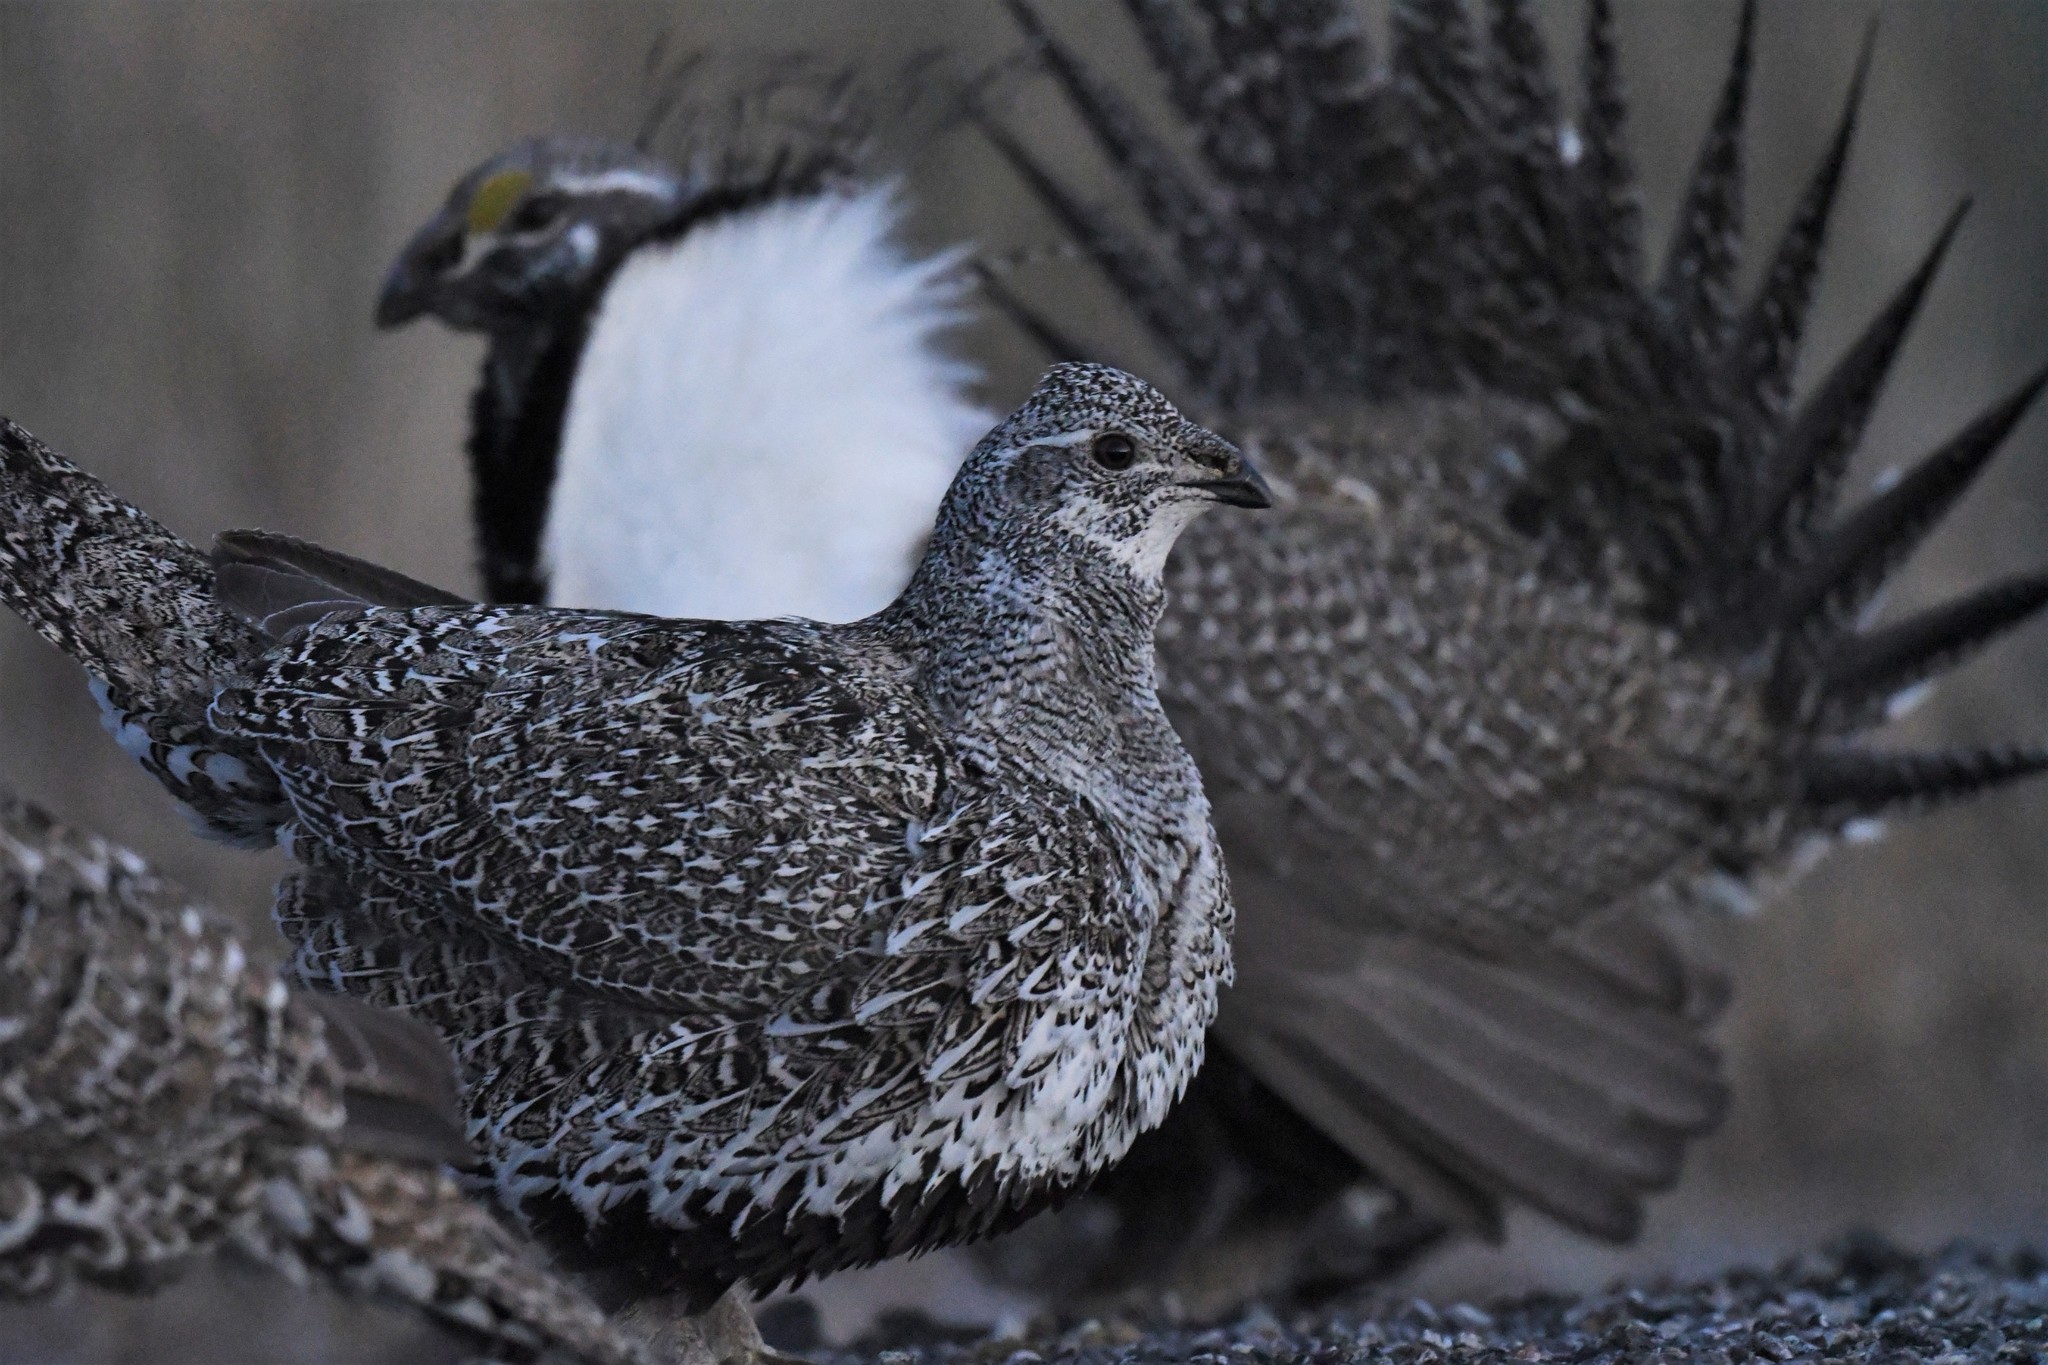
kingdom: Animalia
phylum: Chordata
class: Aves
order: Galliformes
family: Phasianidae
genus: Centrocercus
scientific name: Centrocercus urophasianus
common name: Sage grouse
